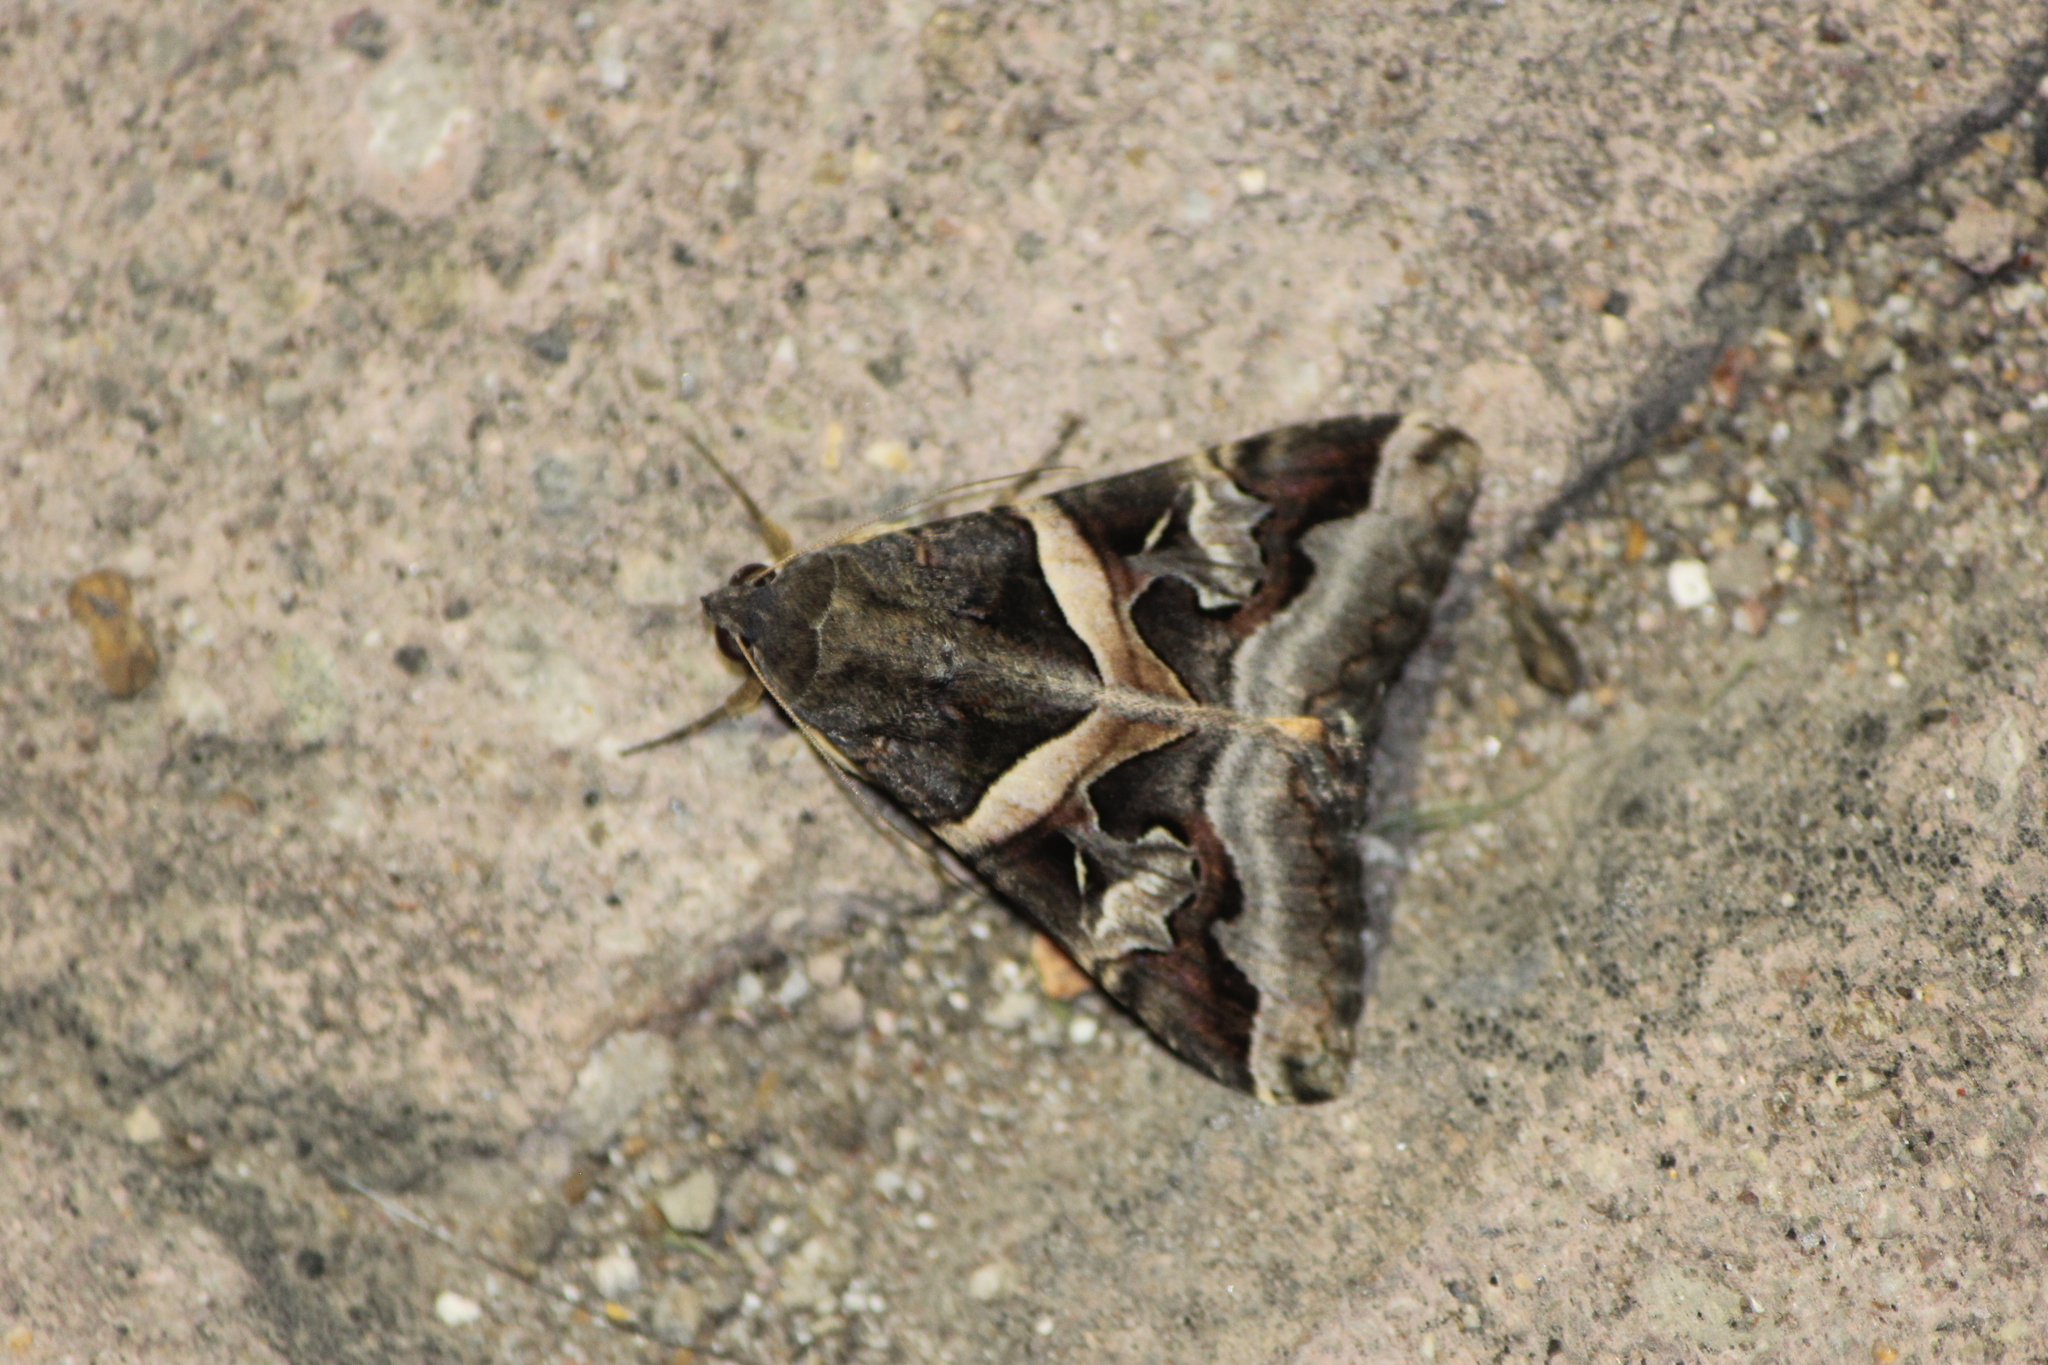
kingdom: Animalia
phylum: Arthropoda
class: Insecta
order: Lepidoptera
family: Erebidae
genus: Melipotis
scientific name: Melipotis indomita
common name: Moth
